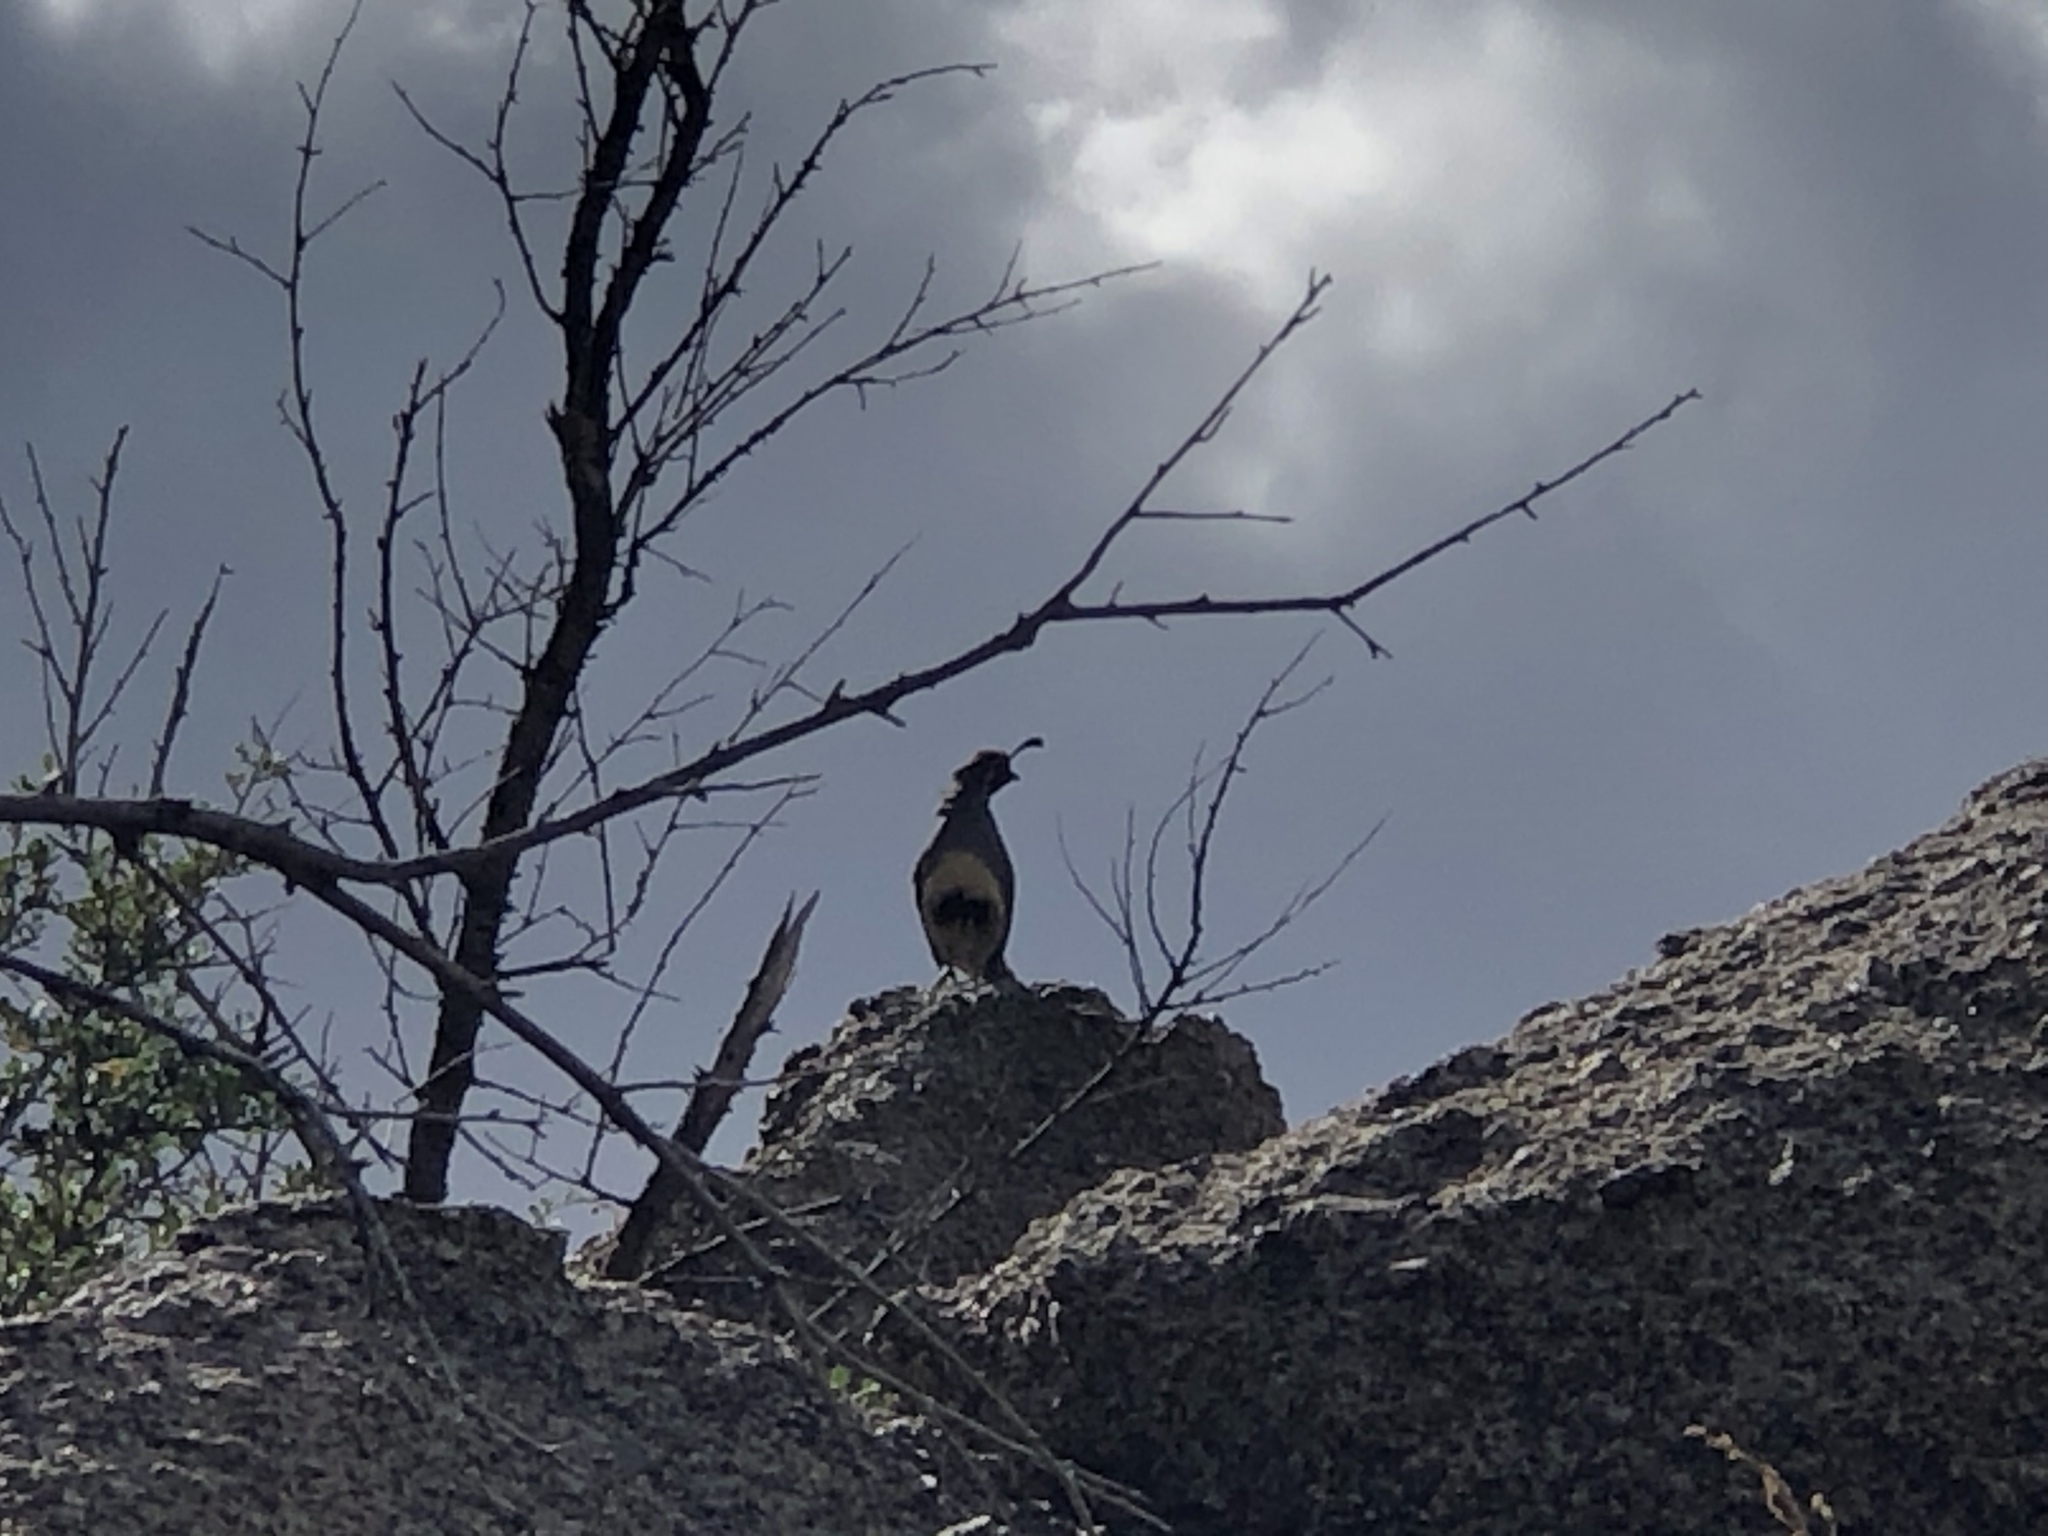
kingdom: Animalia
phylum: Chordata
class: Aves
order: Galliformes
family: Odontophoridae
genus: Callipepla
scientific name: Callipepla gambelii
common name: Gambel's quail
